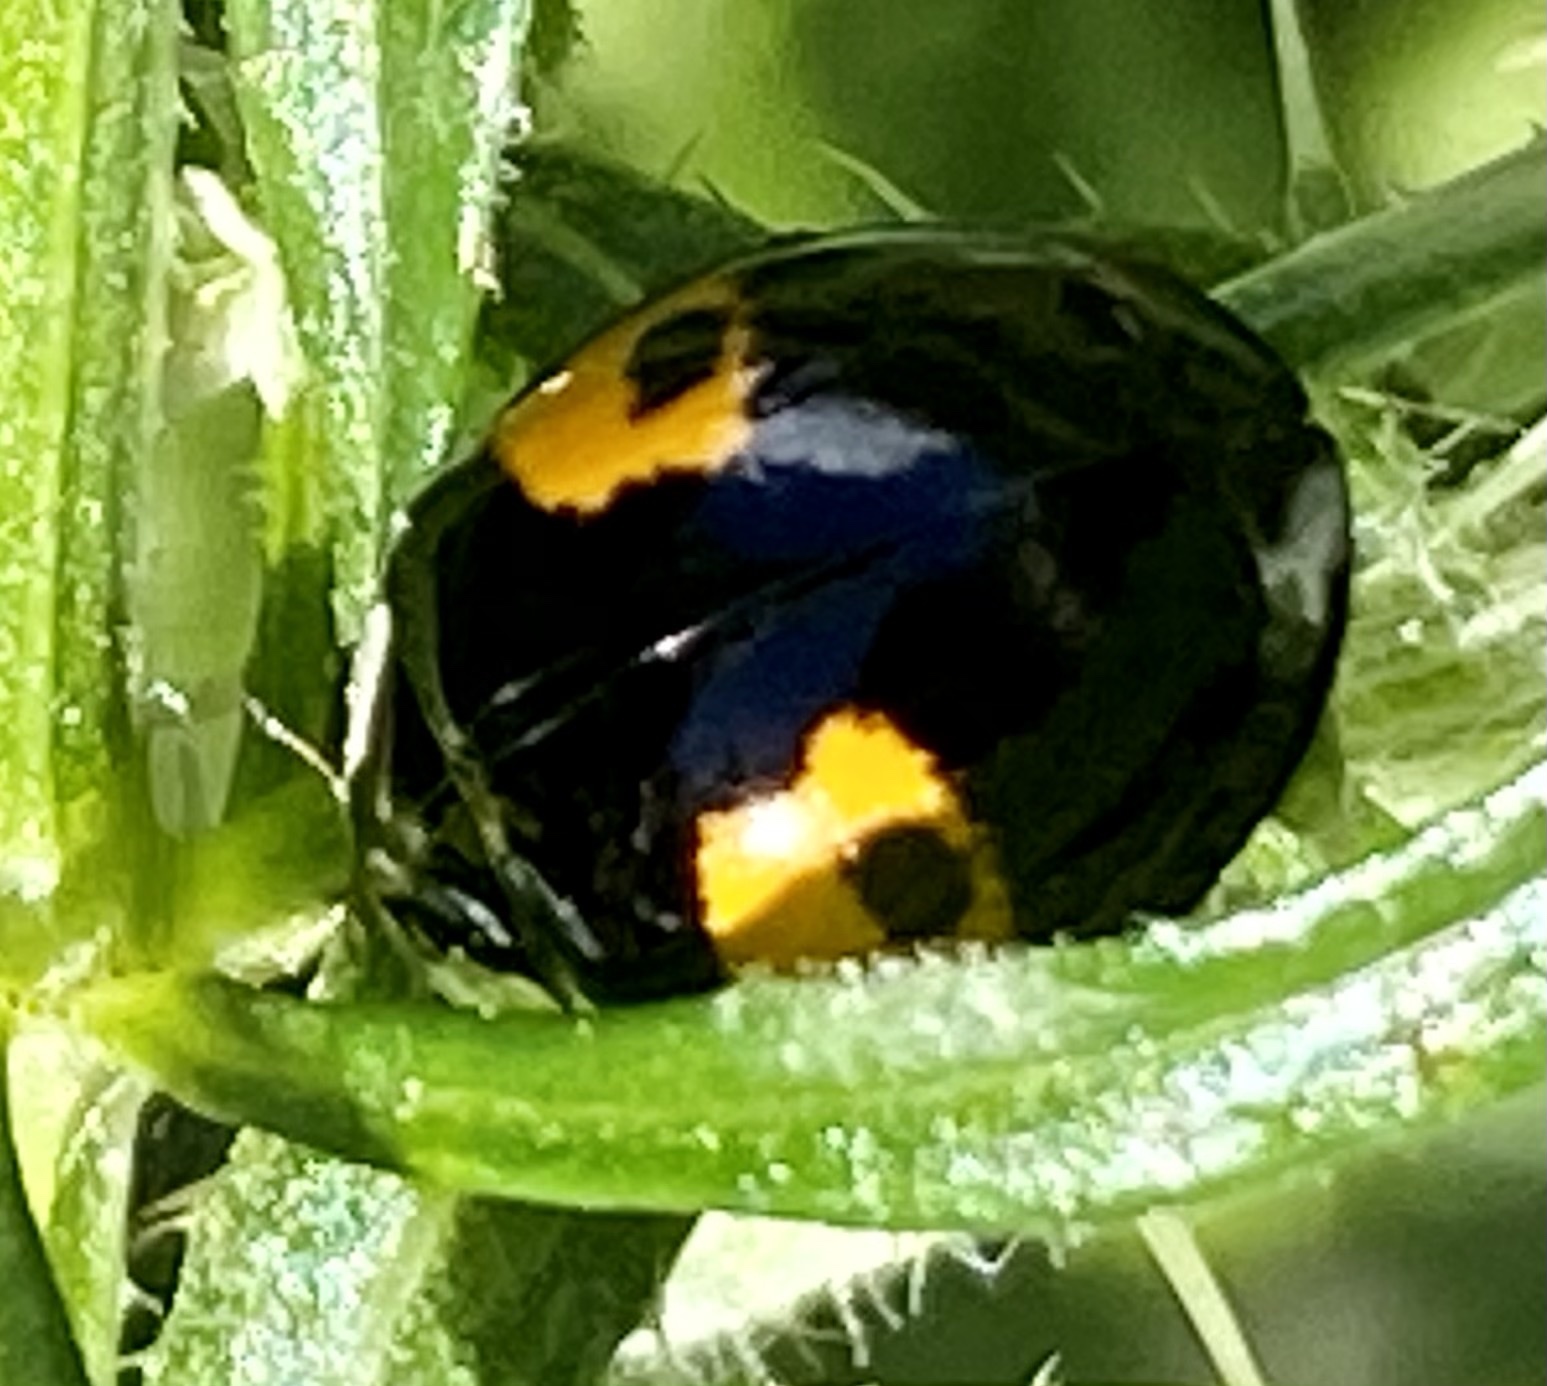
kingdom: Animalia
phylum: Arthropoda
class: Insecta
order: Coleoptera
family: Coccinellidae
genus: Harmonia
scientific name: Harmonia axyridis
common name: Harlequin ladybird
